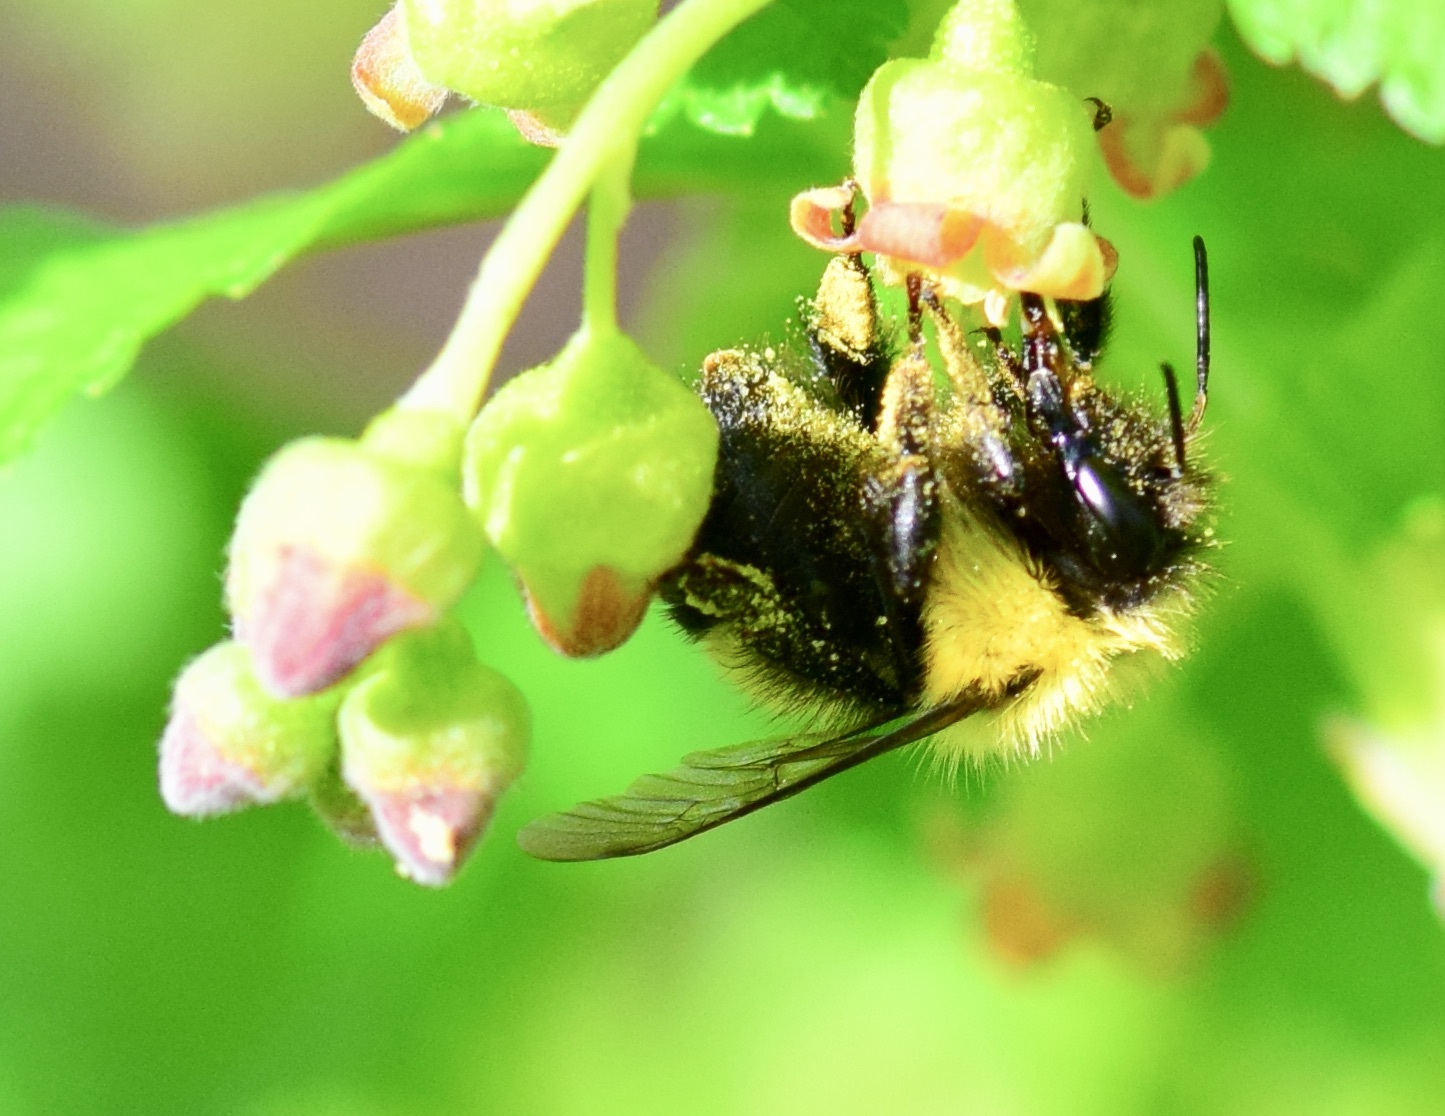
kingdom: Animalia
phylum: Arthropoda
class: Insecta
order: Hymenoptera
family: Apidae
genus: Pyrobombus
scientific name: Pyrobombus
